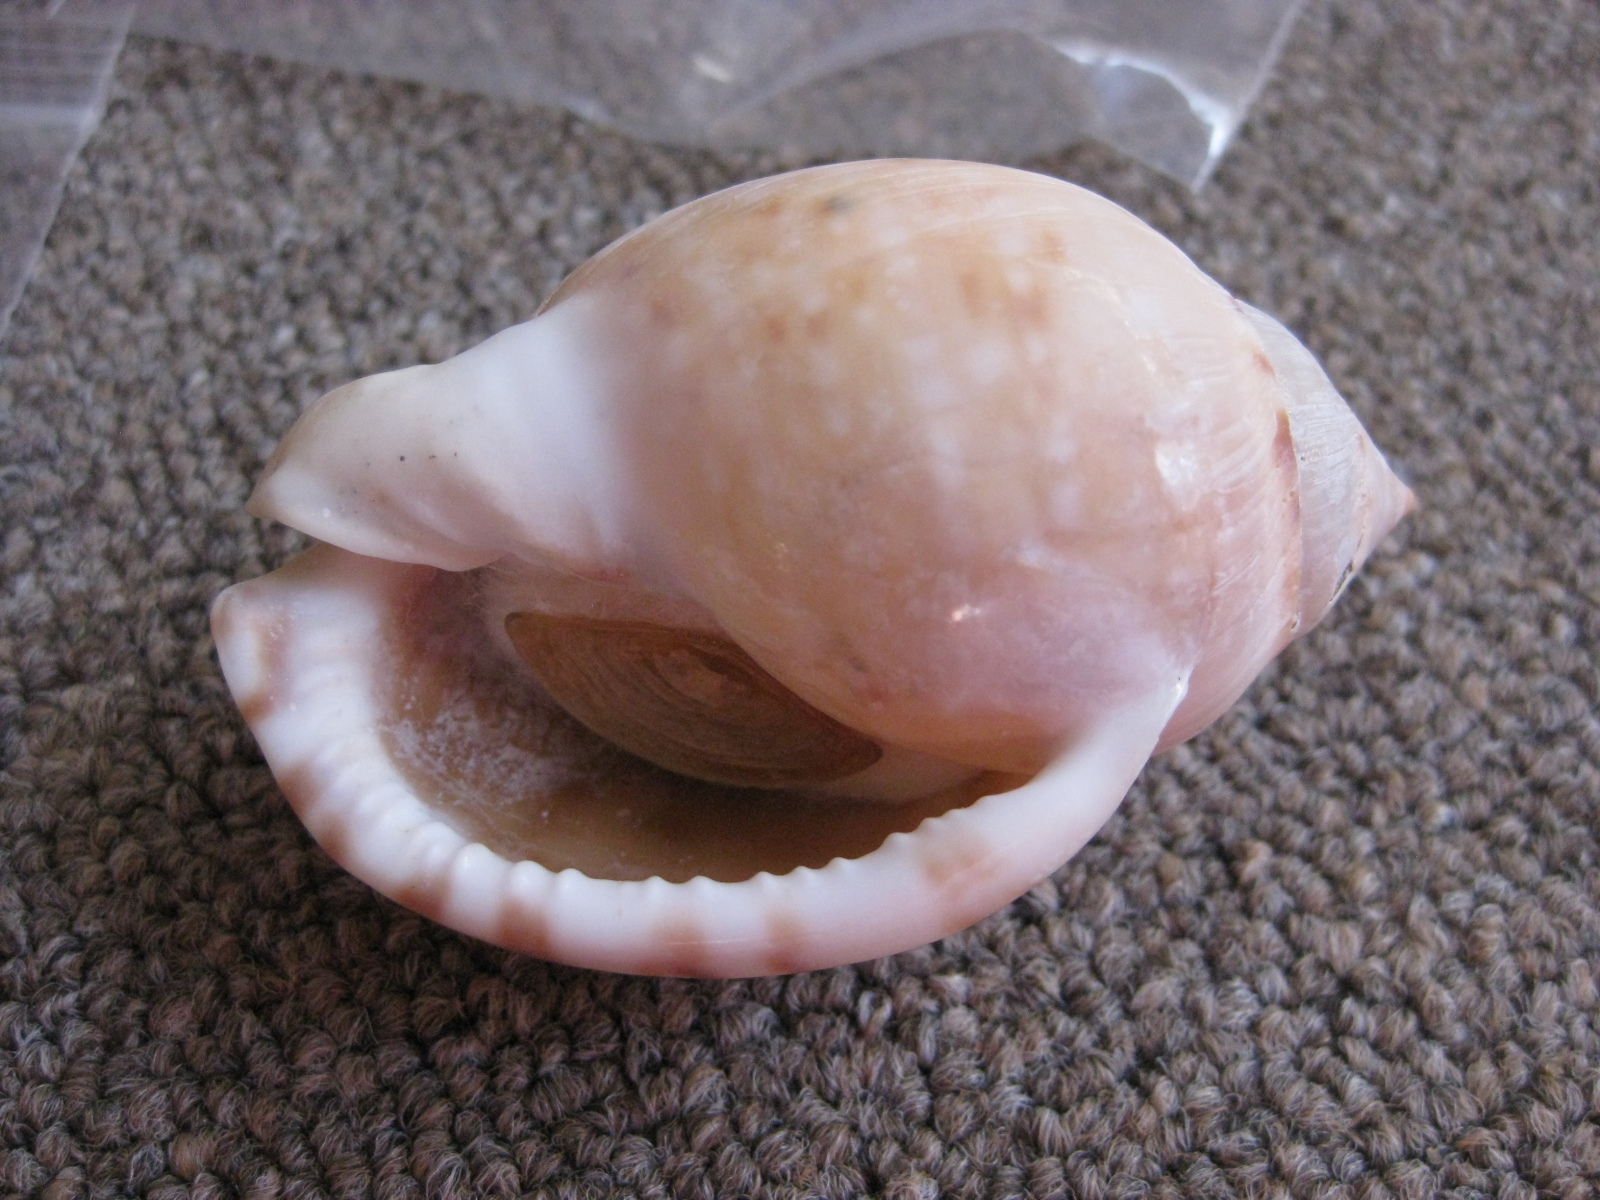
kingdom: Animalia
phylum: Mollusca
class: Gastropoda
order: Littorinimorpha
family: Cassidae
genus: Semicassis
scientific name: Semicassis labiata
